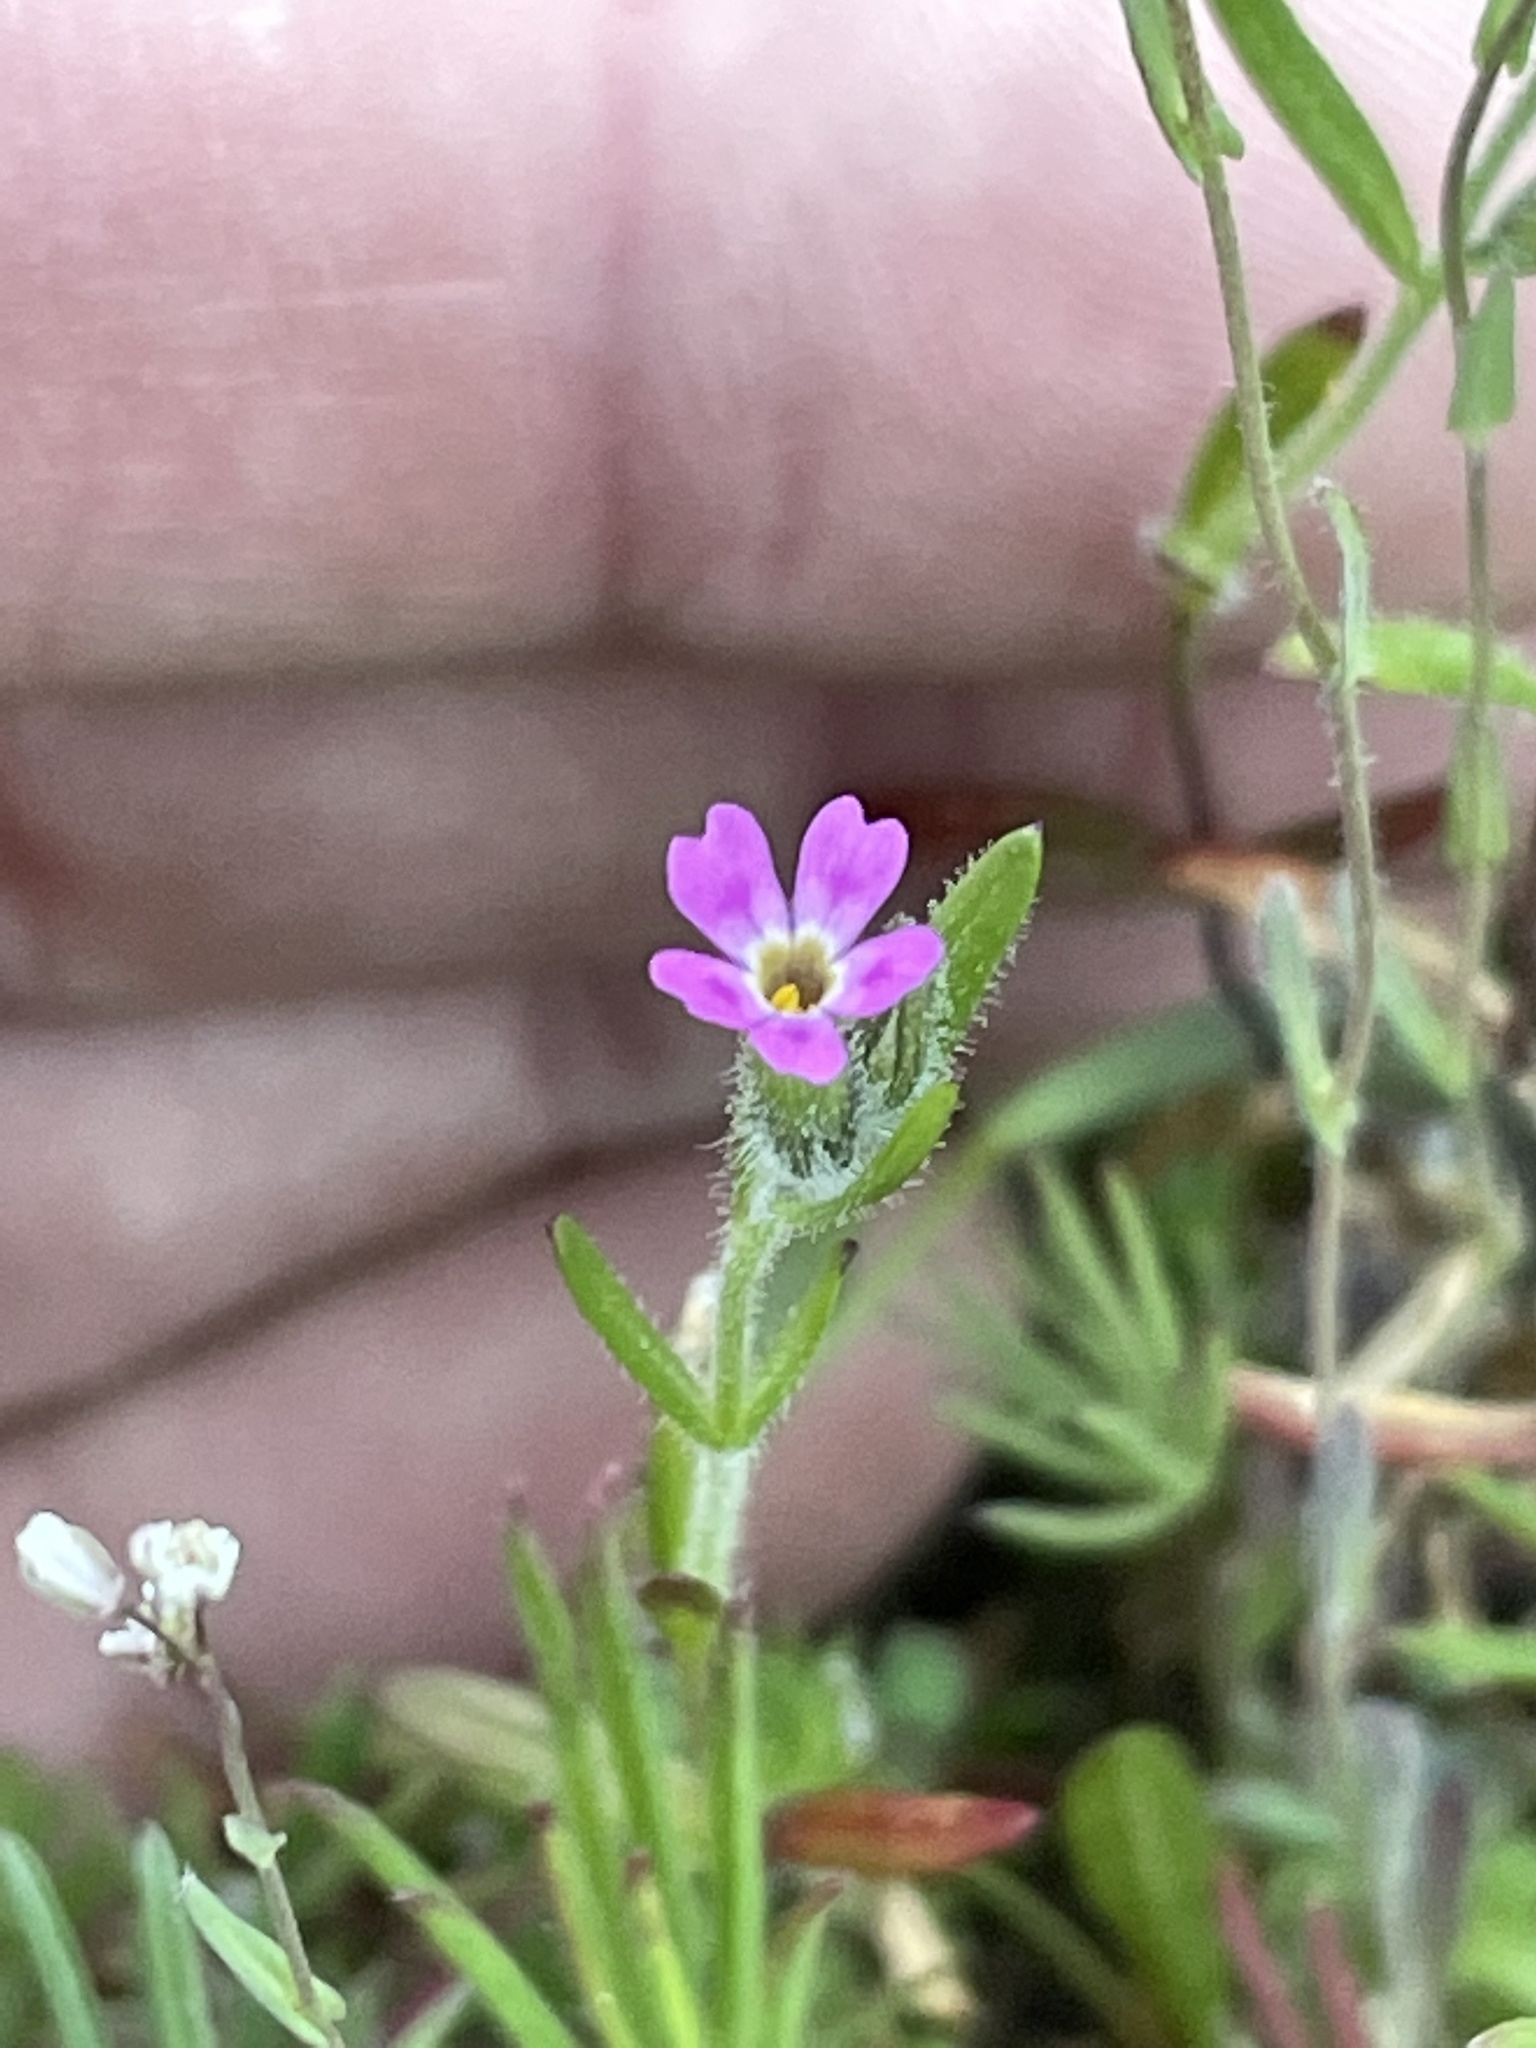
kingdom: Plantae
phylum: Tracheophyta
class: Magnoliopsida
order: Ericales
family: Polemoniaceae
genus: Phlox
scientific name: Phlox gracilis
